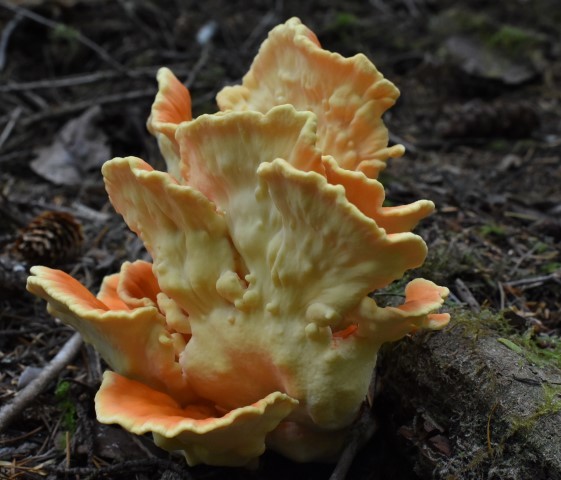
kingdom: Fungi
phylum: Basidiomycota
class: Agaricomycetes
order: Polyporales
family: Laetiporaceae
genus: Laetiporus
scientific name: Laetiporus conifericola
